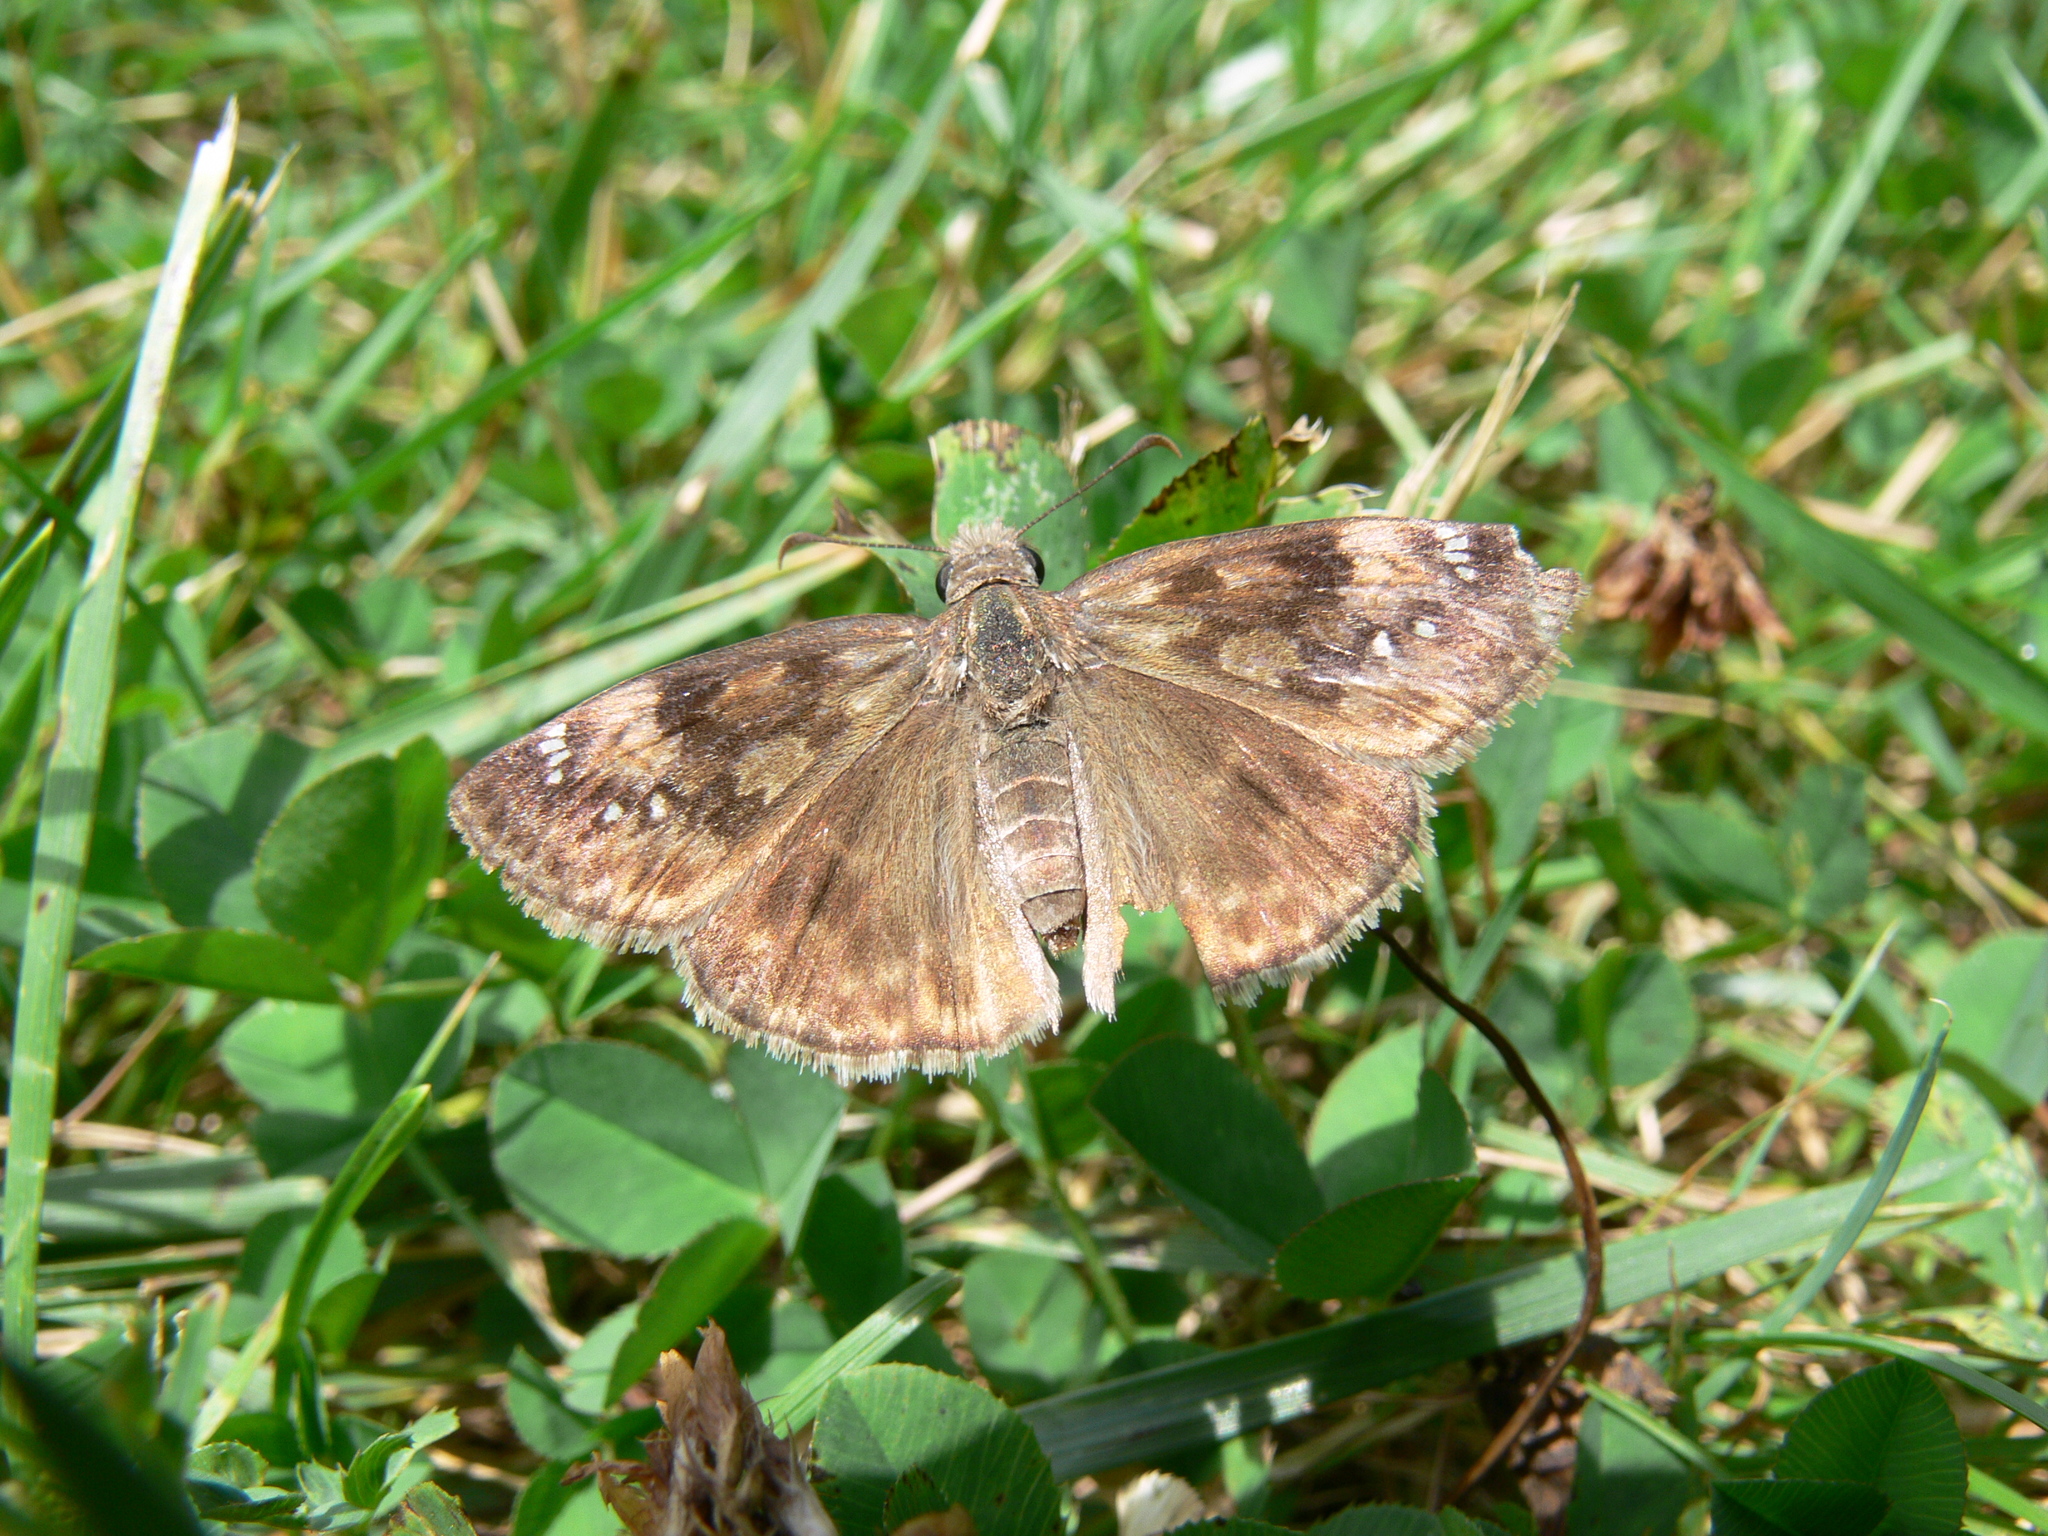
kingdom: Animalia
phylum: Arthropoda
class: Insecta
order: Lepidoptera
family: Hesperiidae
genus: Erynnis
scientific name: Erynnis baptisiae
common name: Wild indigo duskywing
